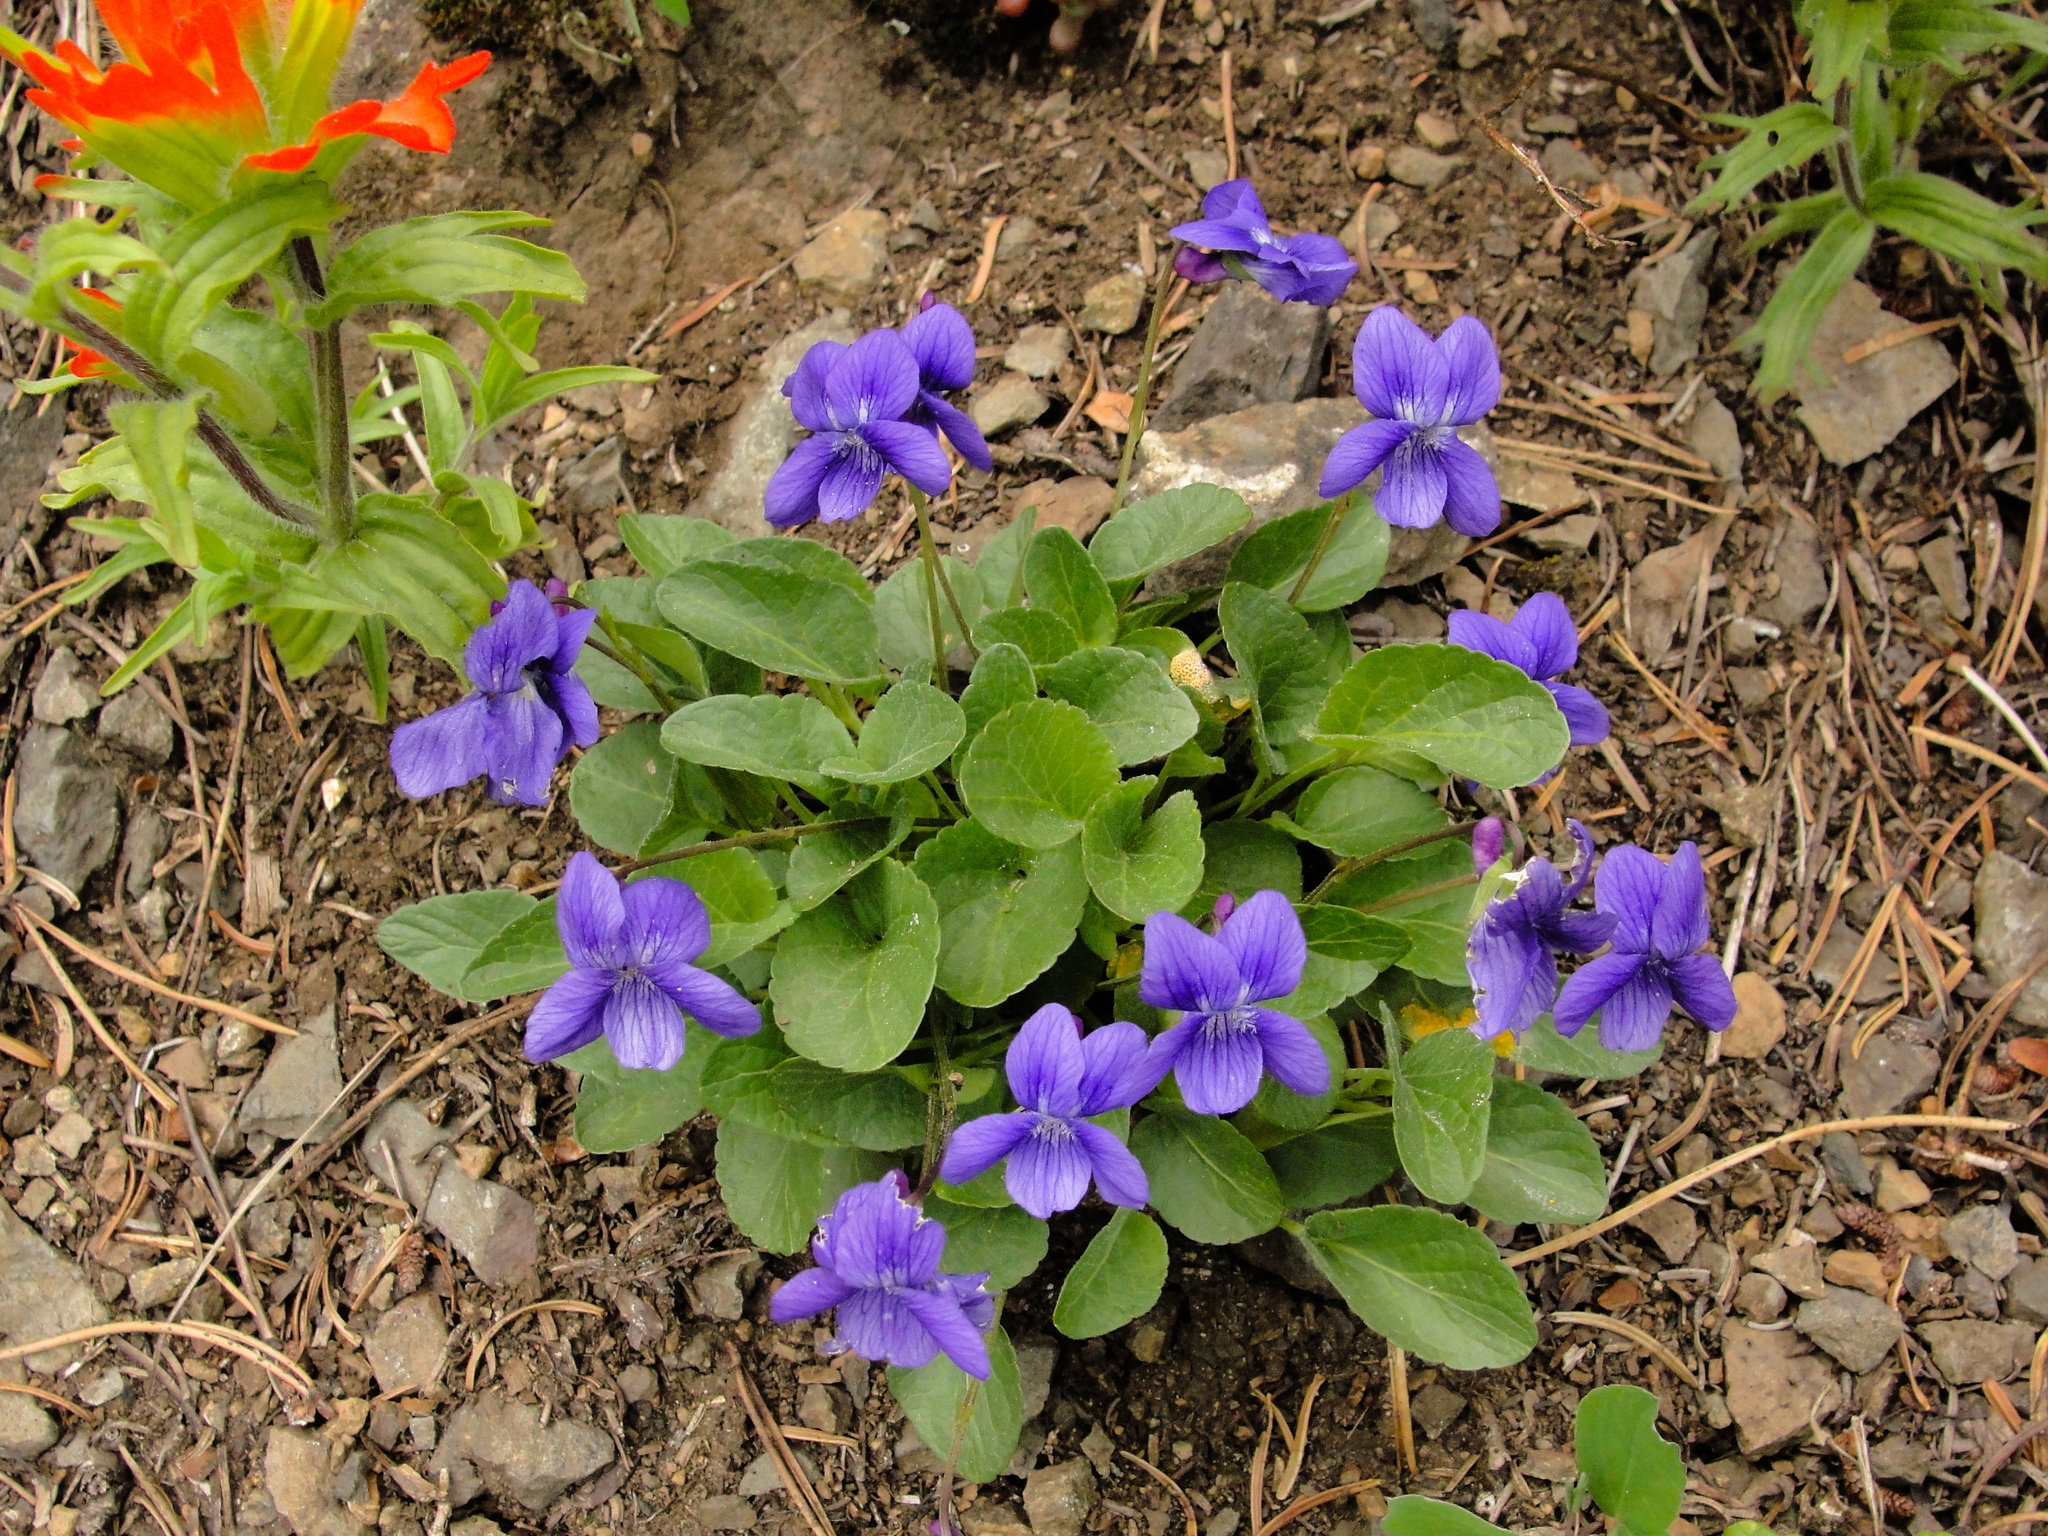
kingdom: Plantae
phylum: Tracheophyta
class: Magnoliopsida
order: Malpighiales
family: Violaceae
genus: Viola
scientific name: Viola adunca
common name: Sand violet
